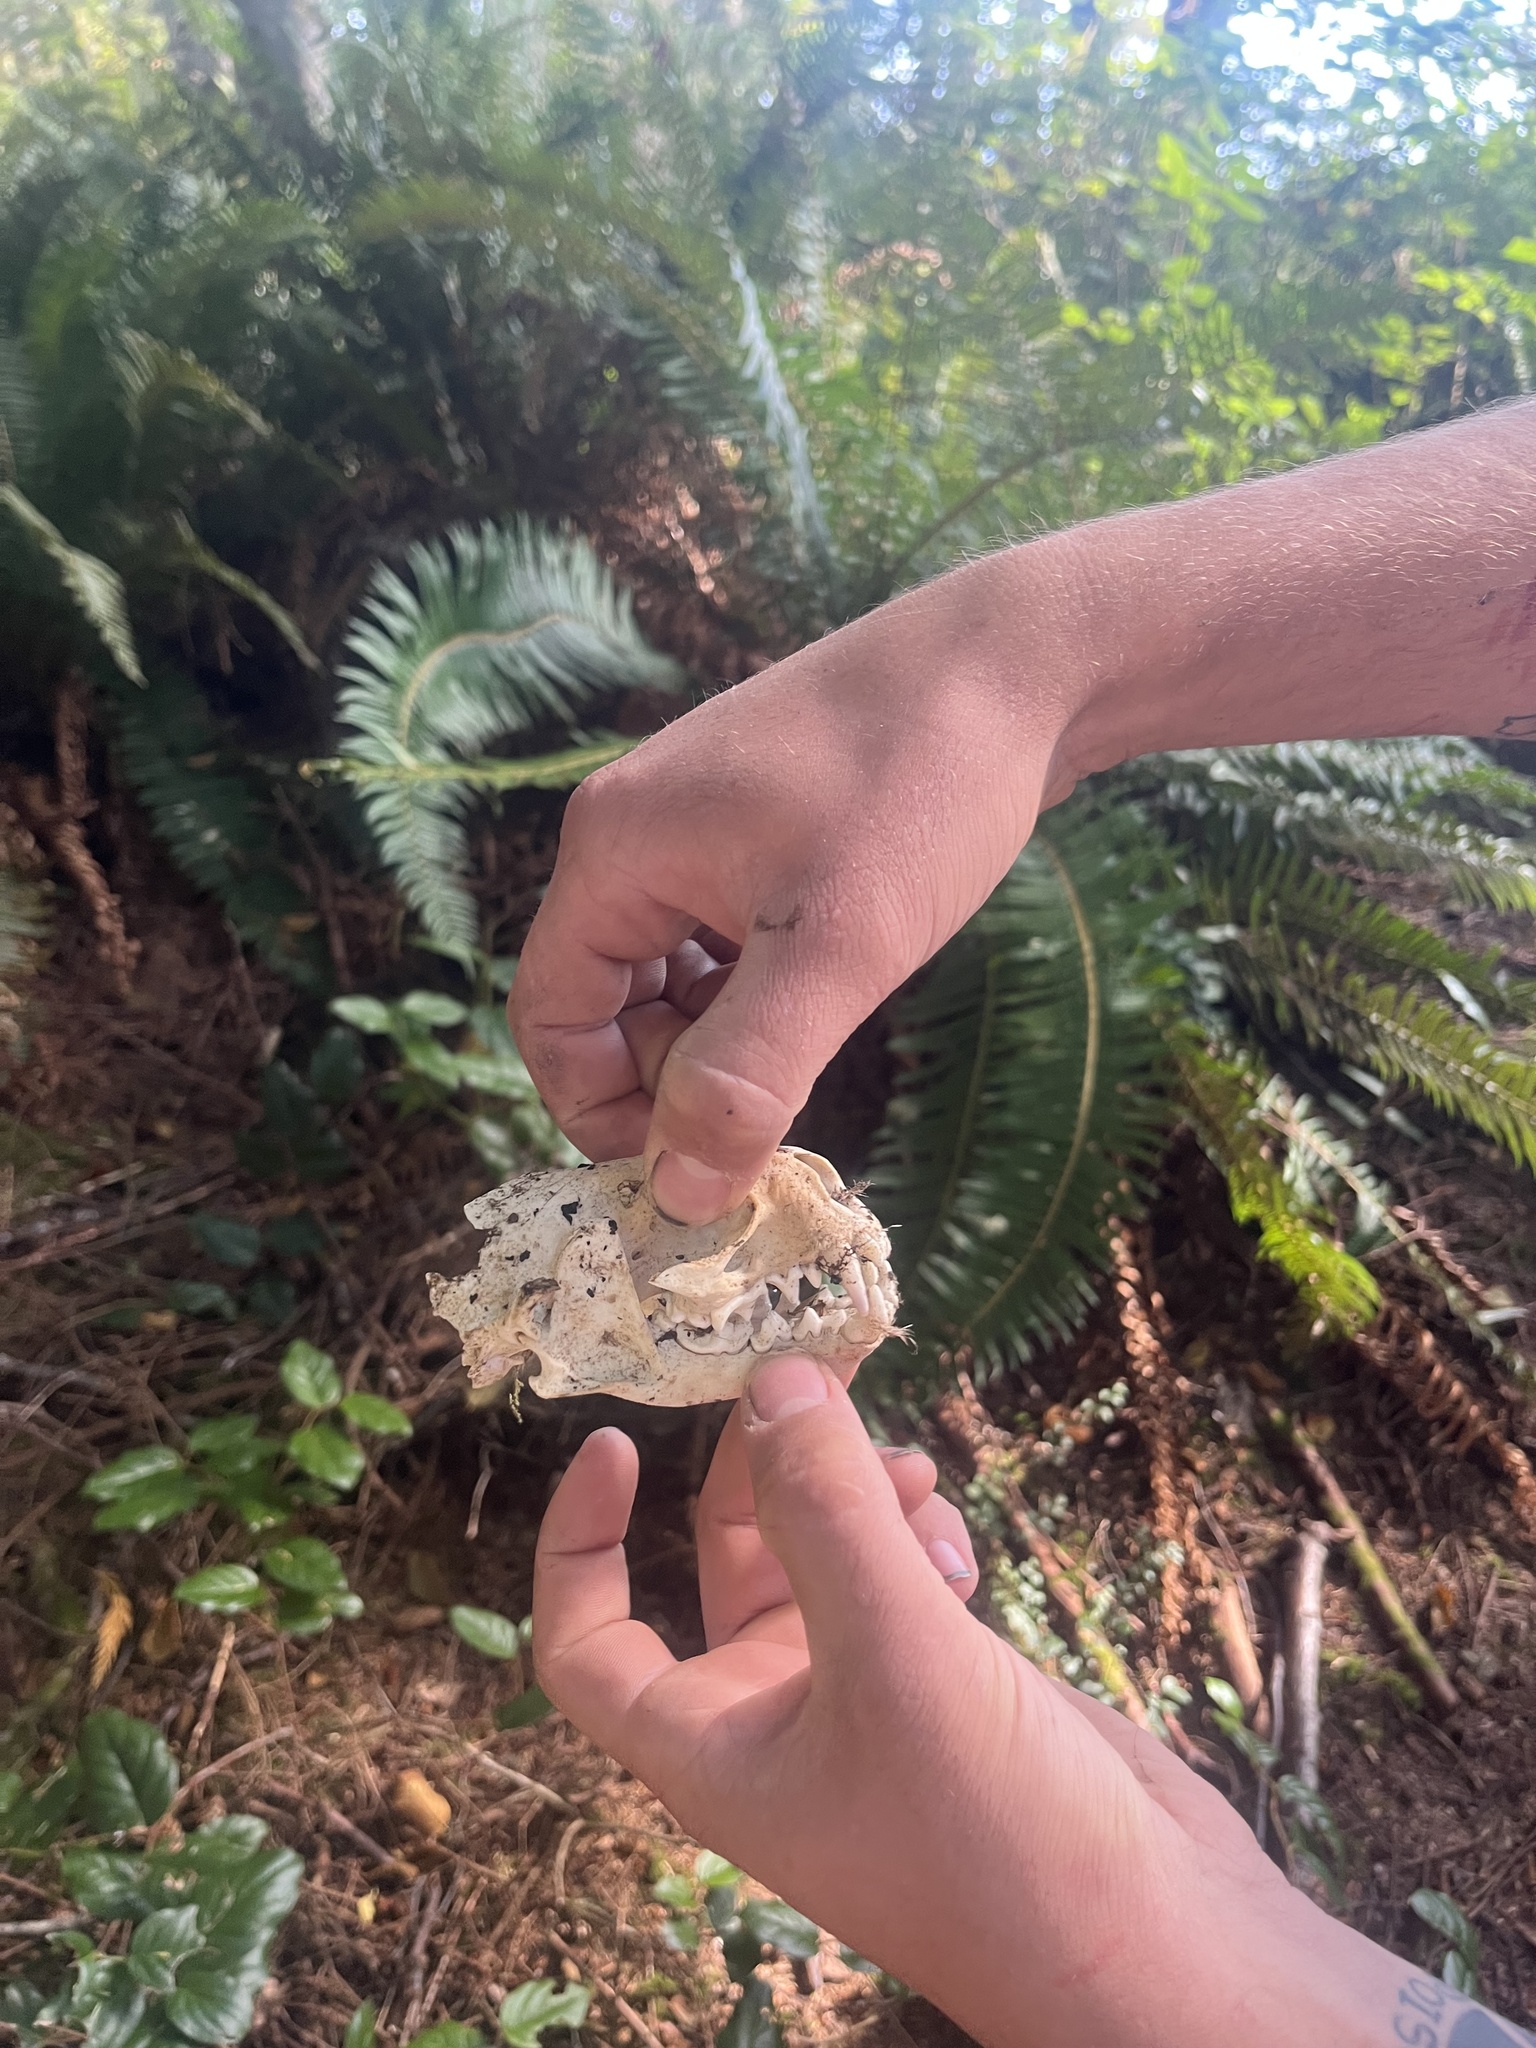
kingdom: Animalia
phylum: Chordata
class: Mammalia
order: Carnivora
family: Mustelidae
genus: Lontra
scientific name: Lontra canadensis
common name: North american river otter
